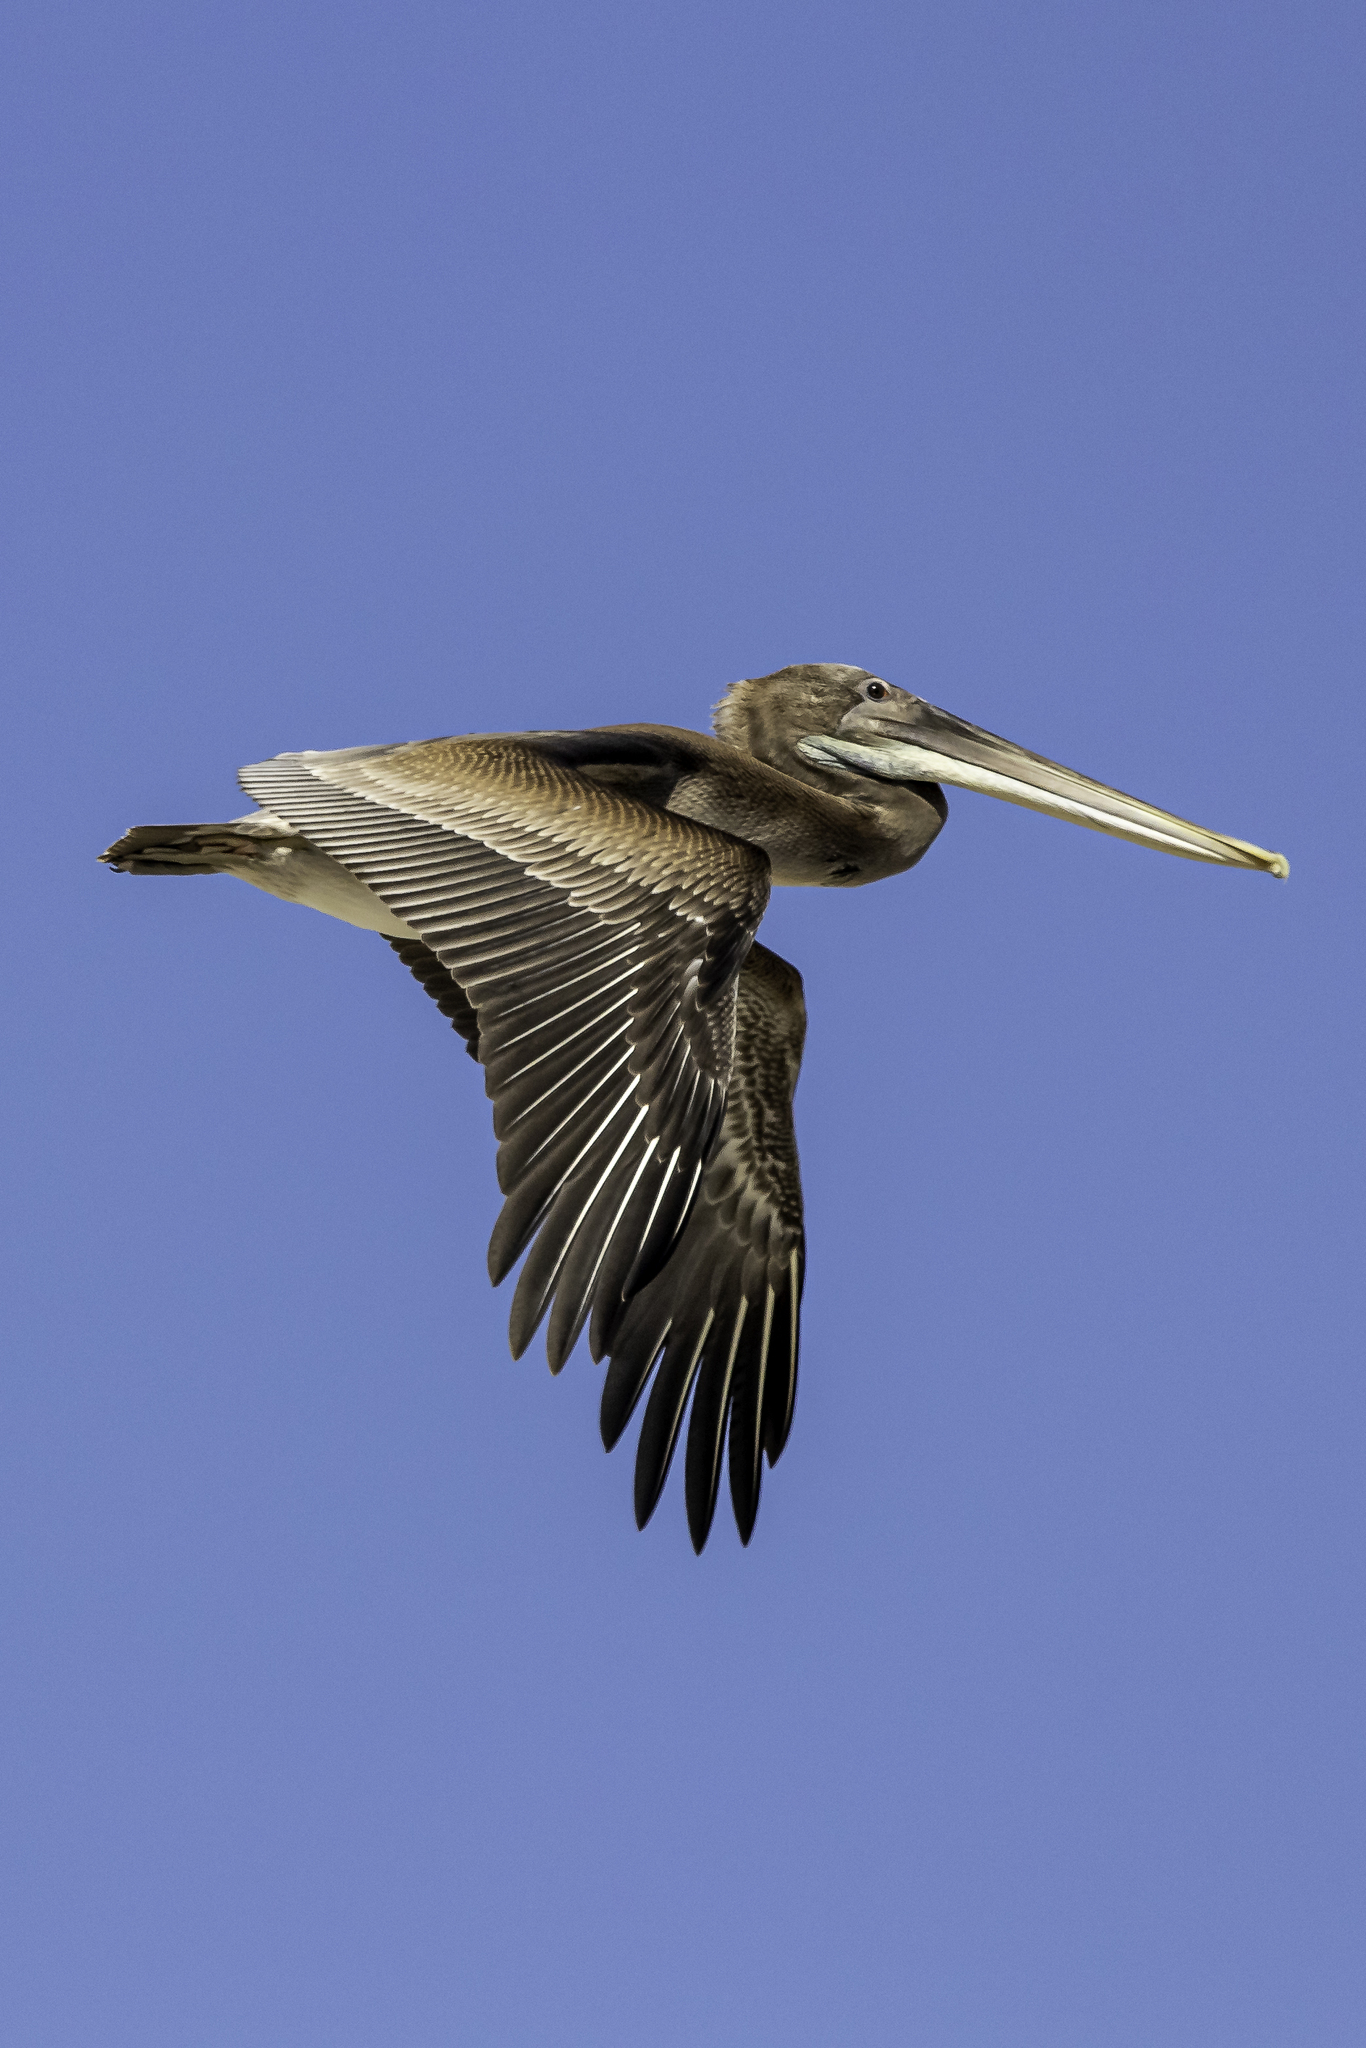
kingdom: Animalia
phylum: Chordata
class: Aves
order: Pelecaniformes
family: Pelecanidae
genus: Pelecanus
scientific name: Pelecanus occidentalis
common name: Brown pelican
